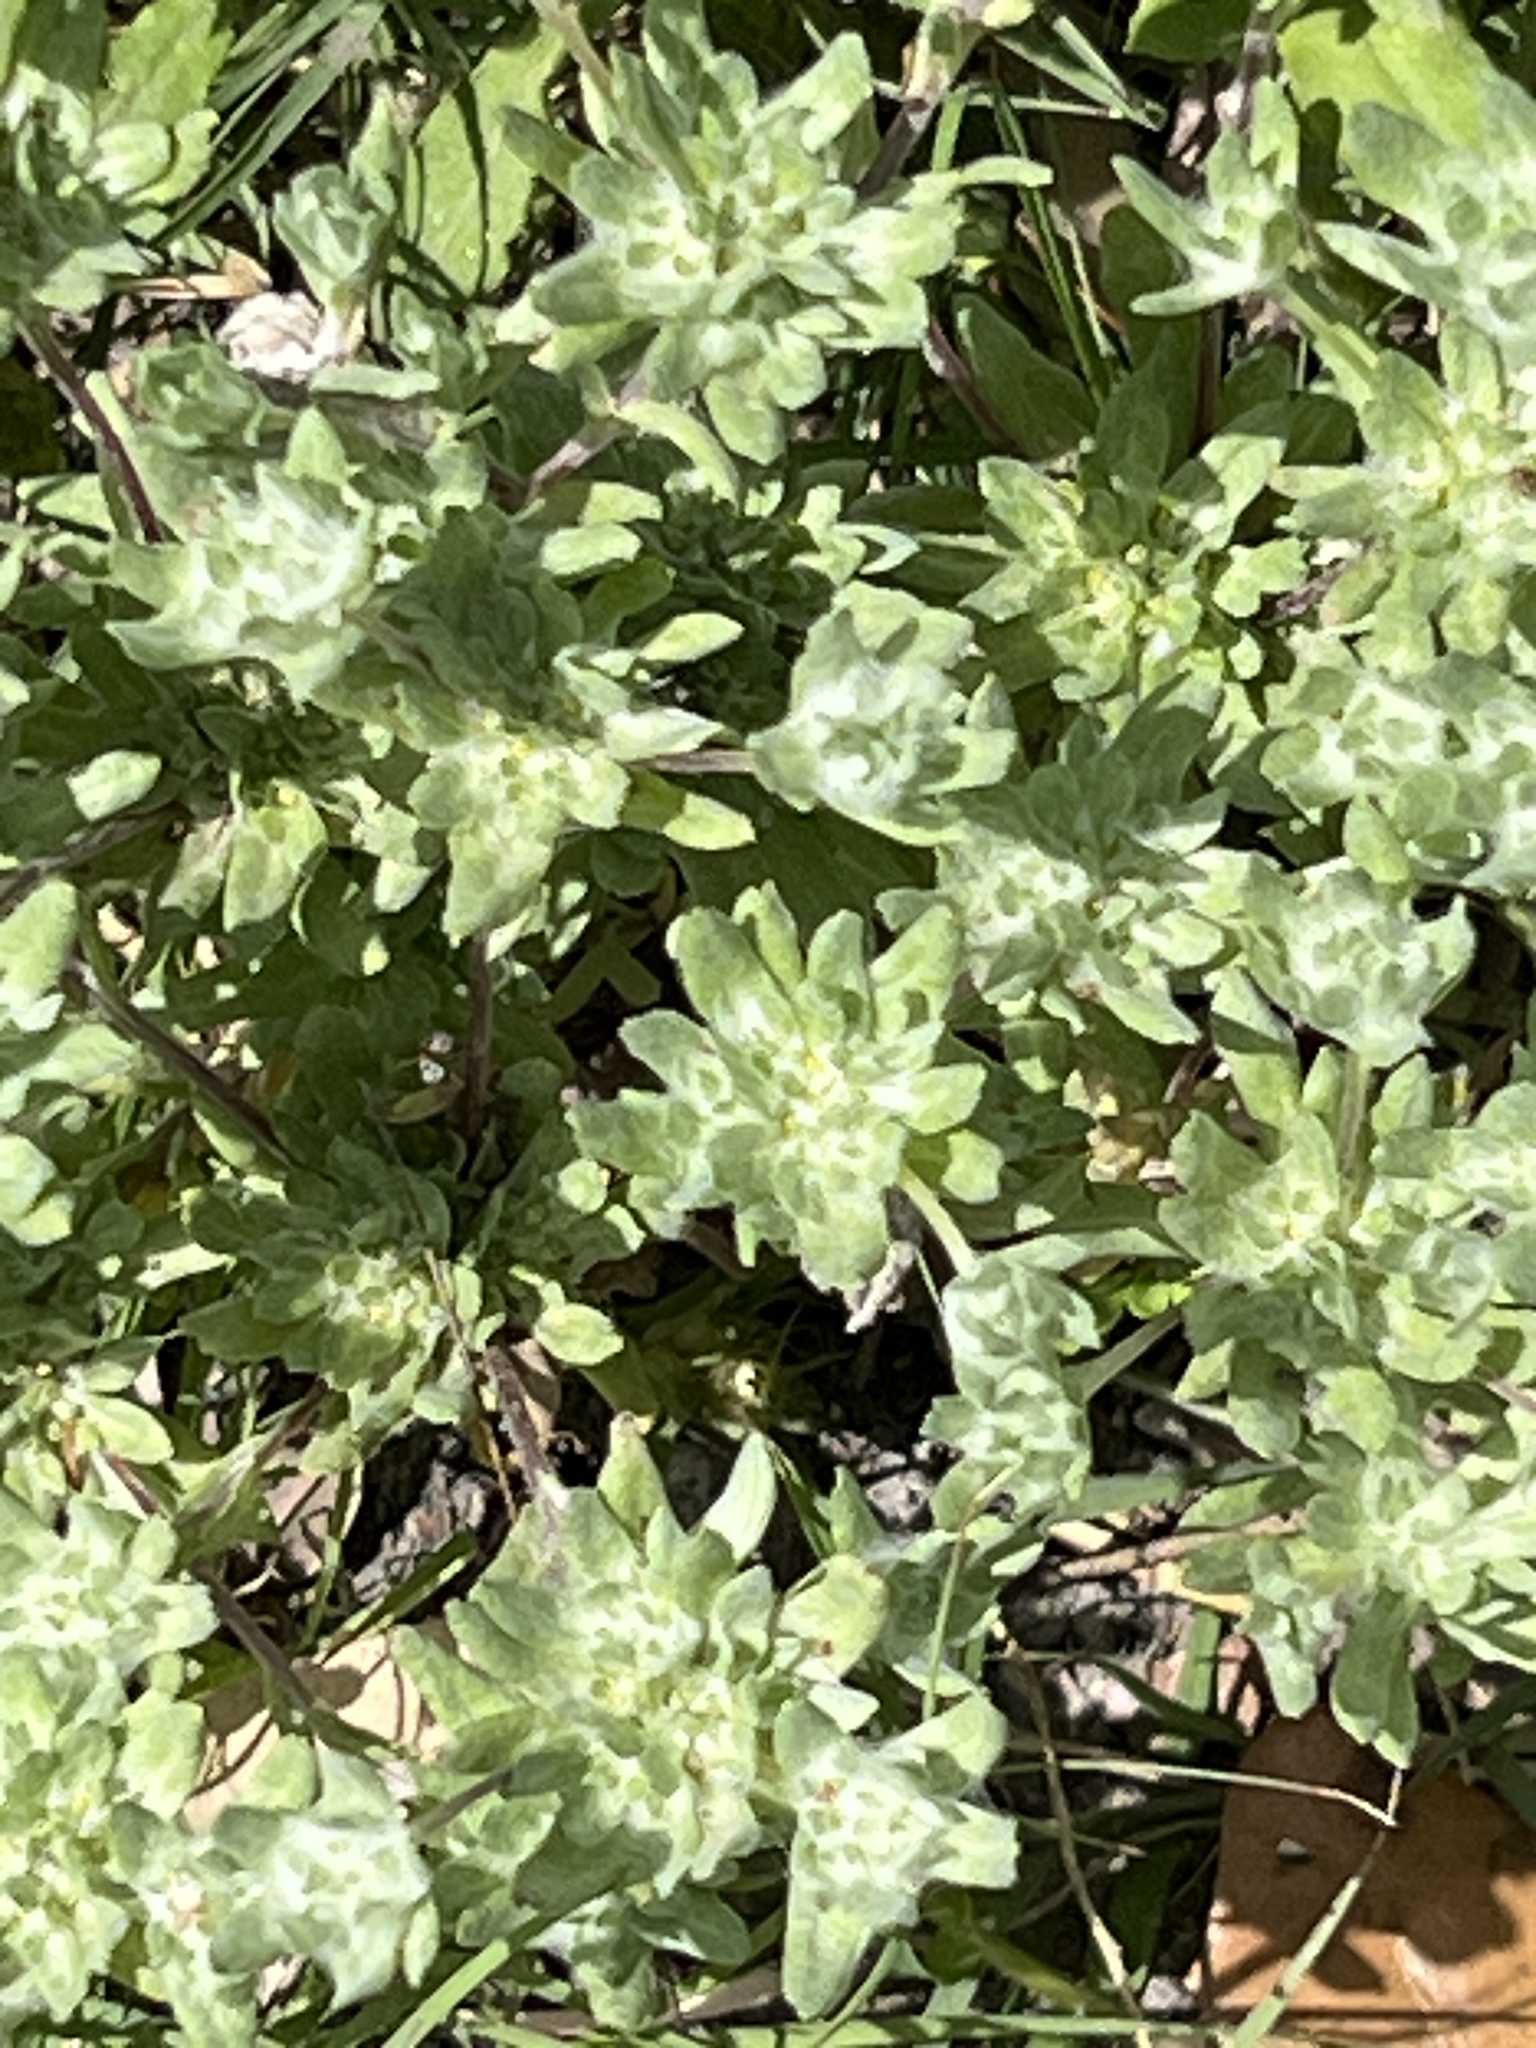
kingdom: Plantae
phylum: Tracheophyta
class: Magnoliopsida
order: Asterales
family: Asteraceae
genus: Diaperia
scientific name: Diaperia prolifera
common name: Big-head rabbit-tobacco
